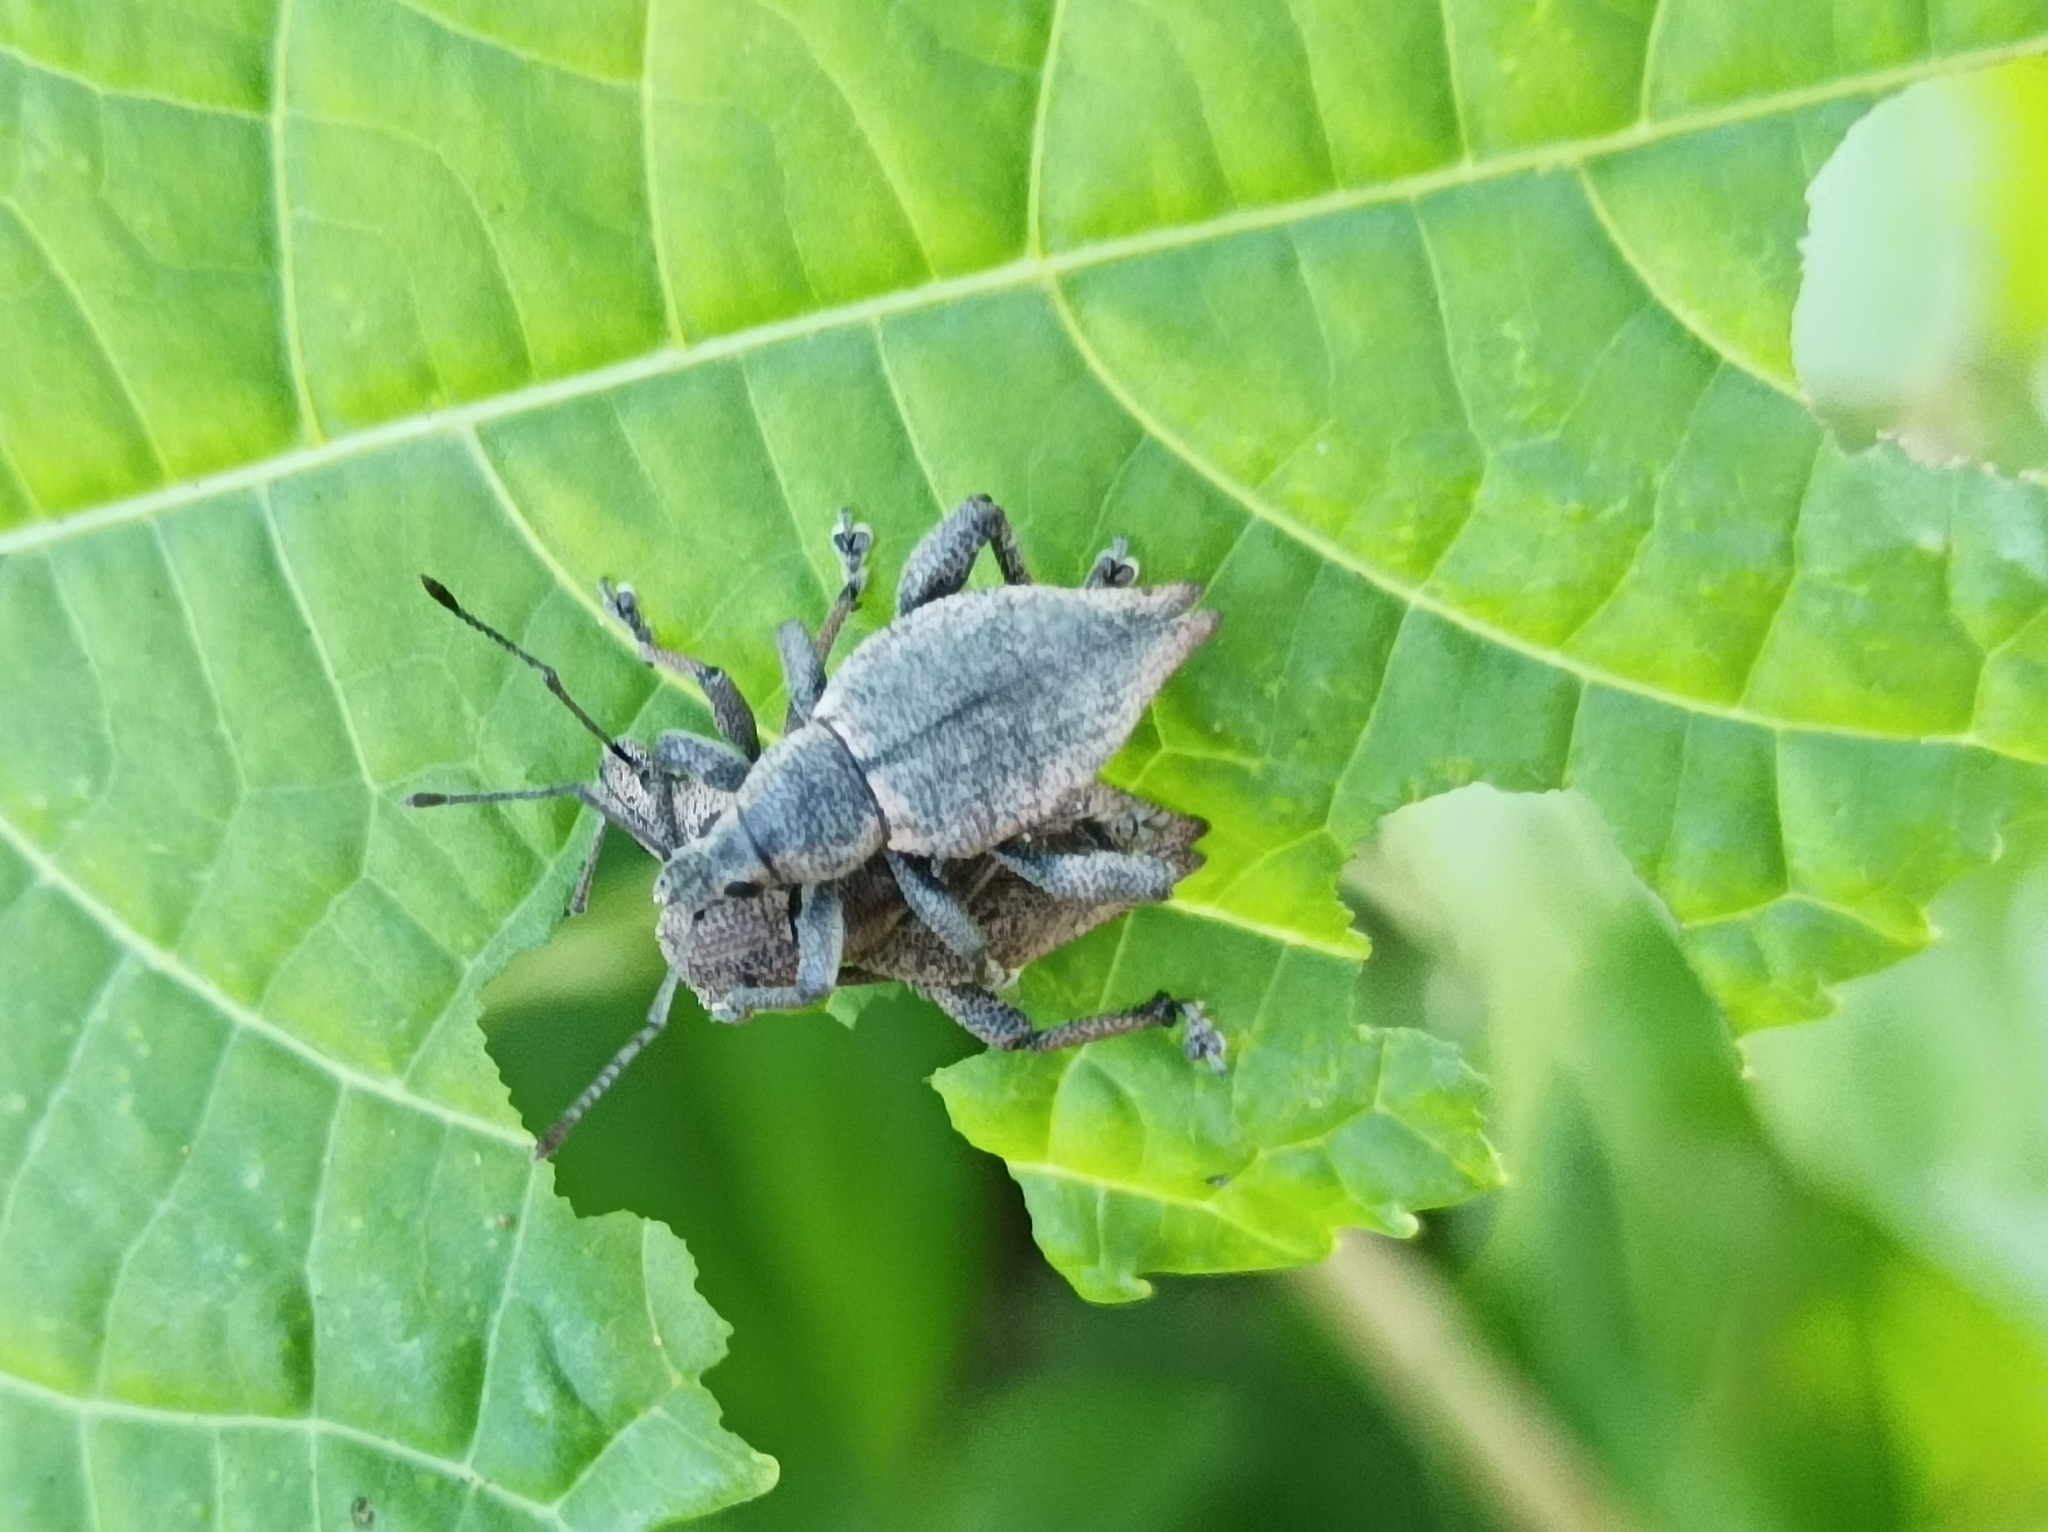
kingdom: Animalia
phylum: Arthropoda
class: Insecta
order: Coleoptera
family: Curculionidae
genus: Elytrurus
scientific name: Elytrurus marginatus
